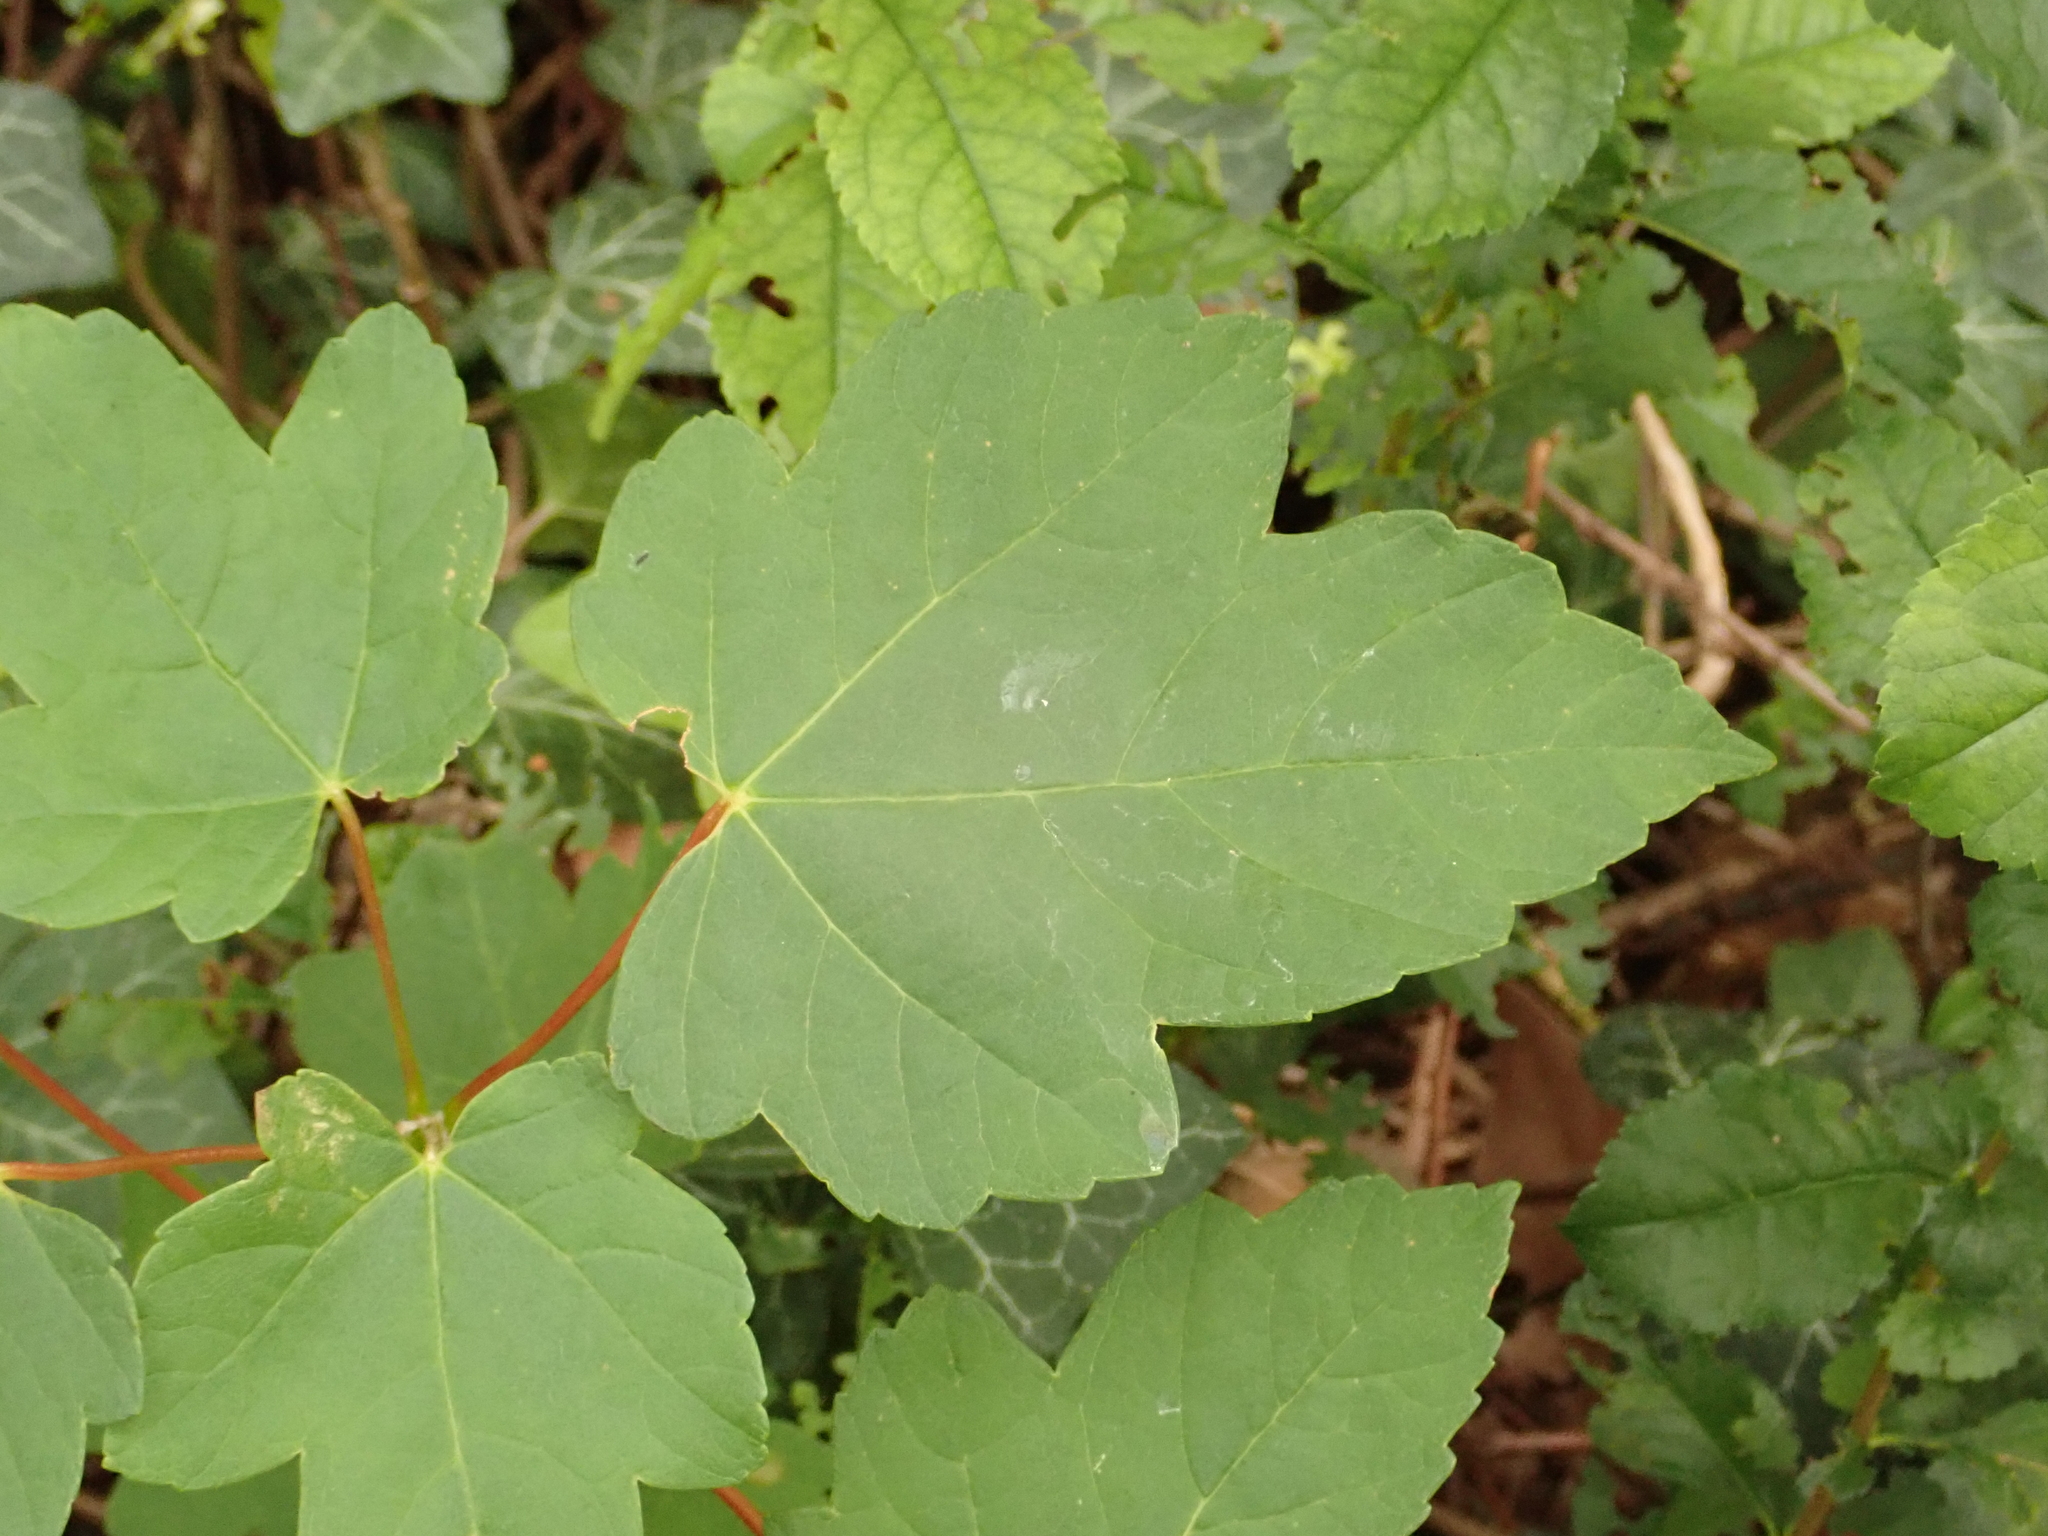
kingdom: Plantae
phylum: Tracheophyta
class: Magnoliopsida
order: Sapindales
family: Sapindaceae
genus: Acer
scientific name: Acer pseudoplatanus
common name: Sycamore
